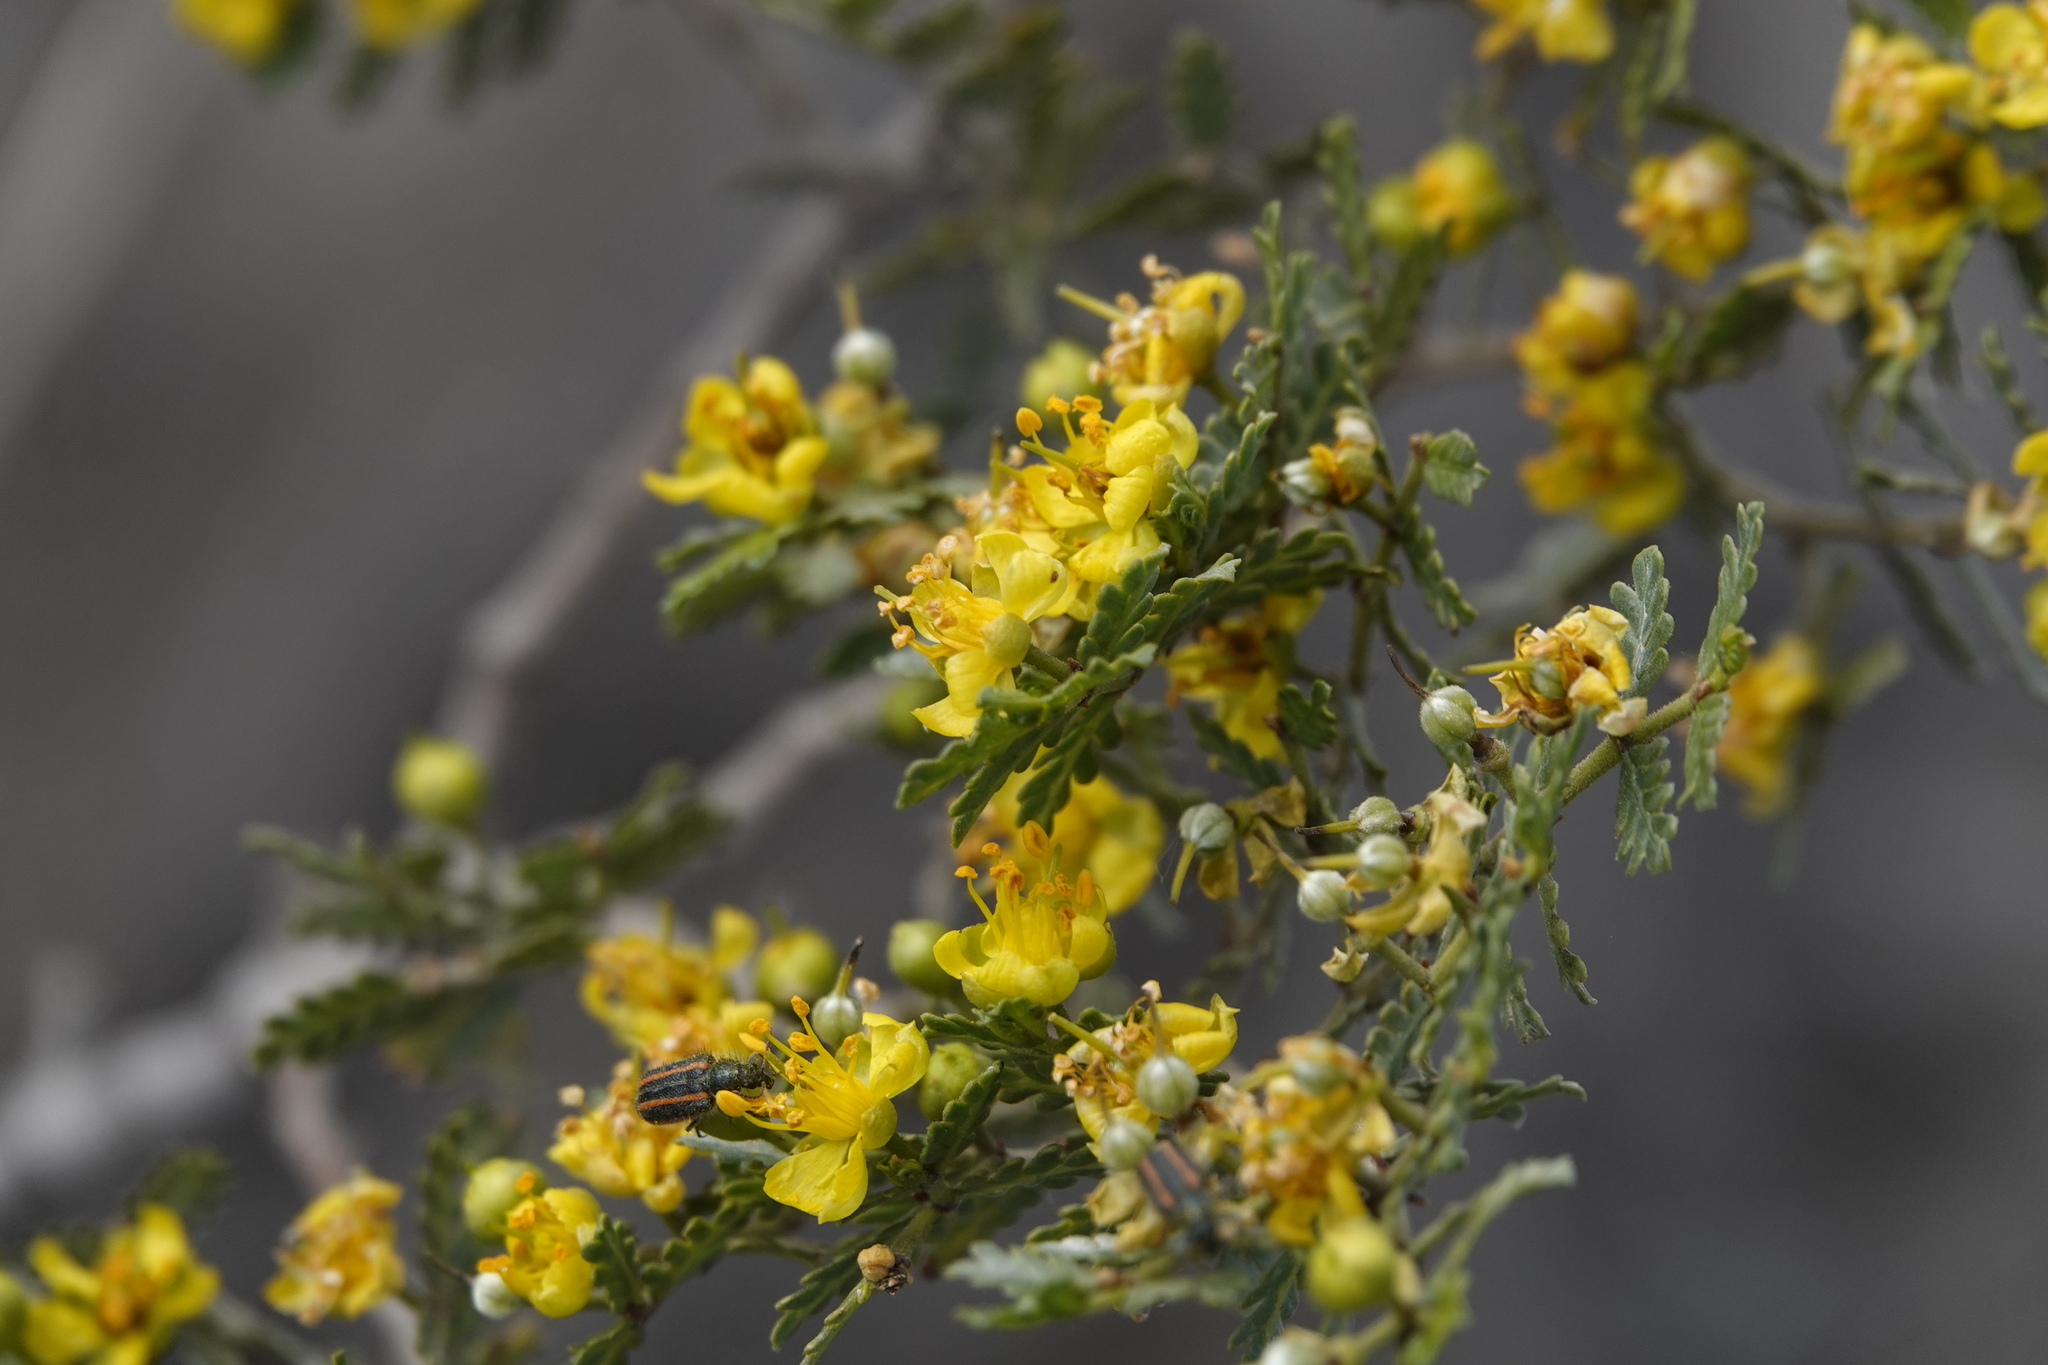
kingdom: Plantae
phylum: Tracheophyta
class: Magnoliopsida
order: Zygophyllales
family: Zygophyllaceae
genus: Larrea
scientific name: Larrea nitida
